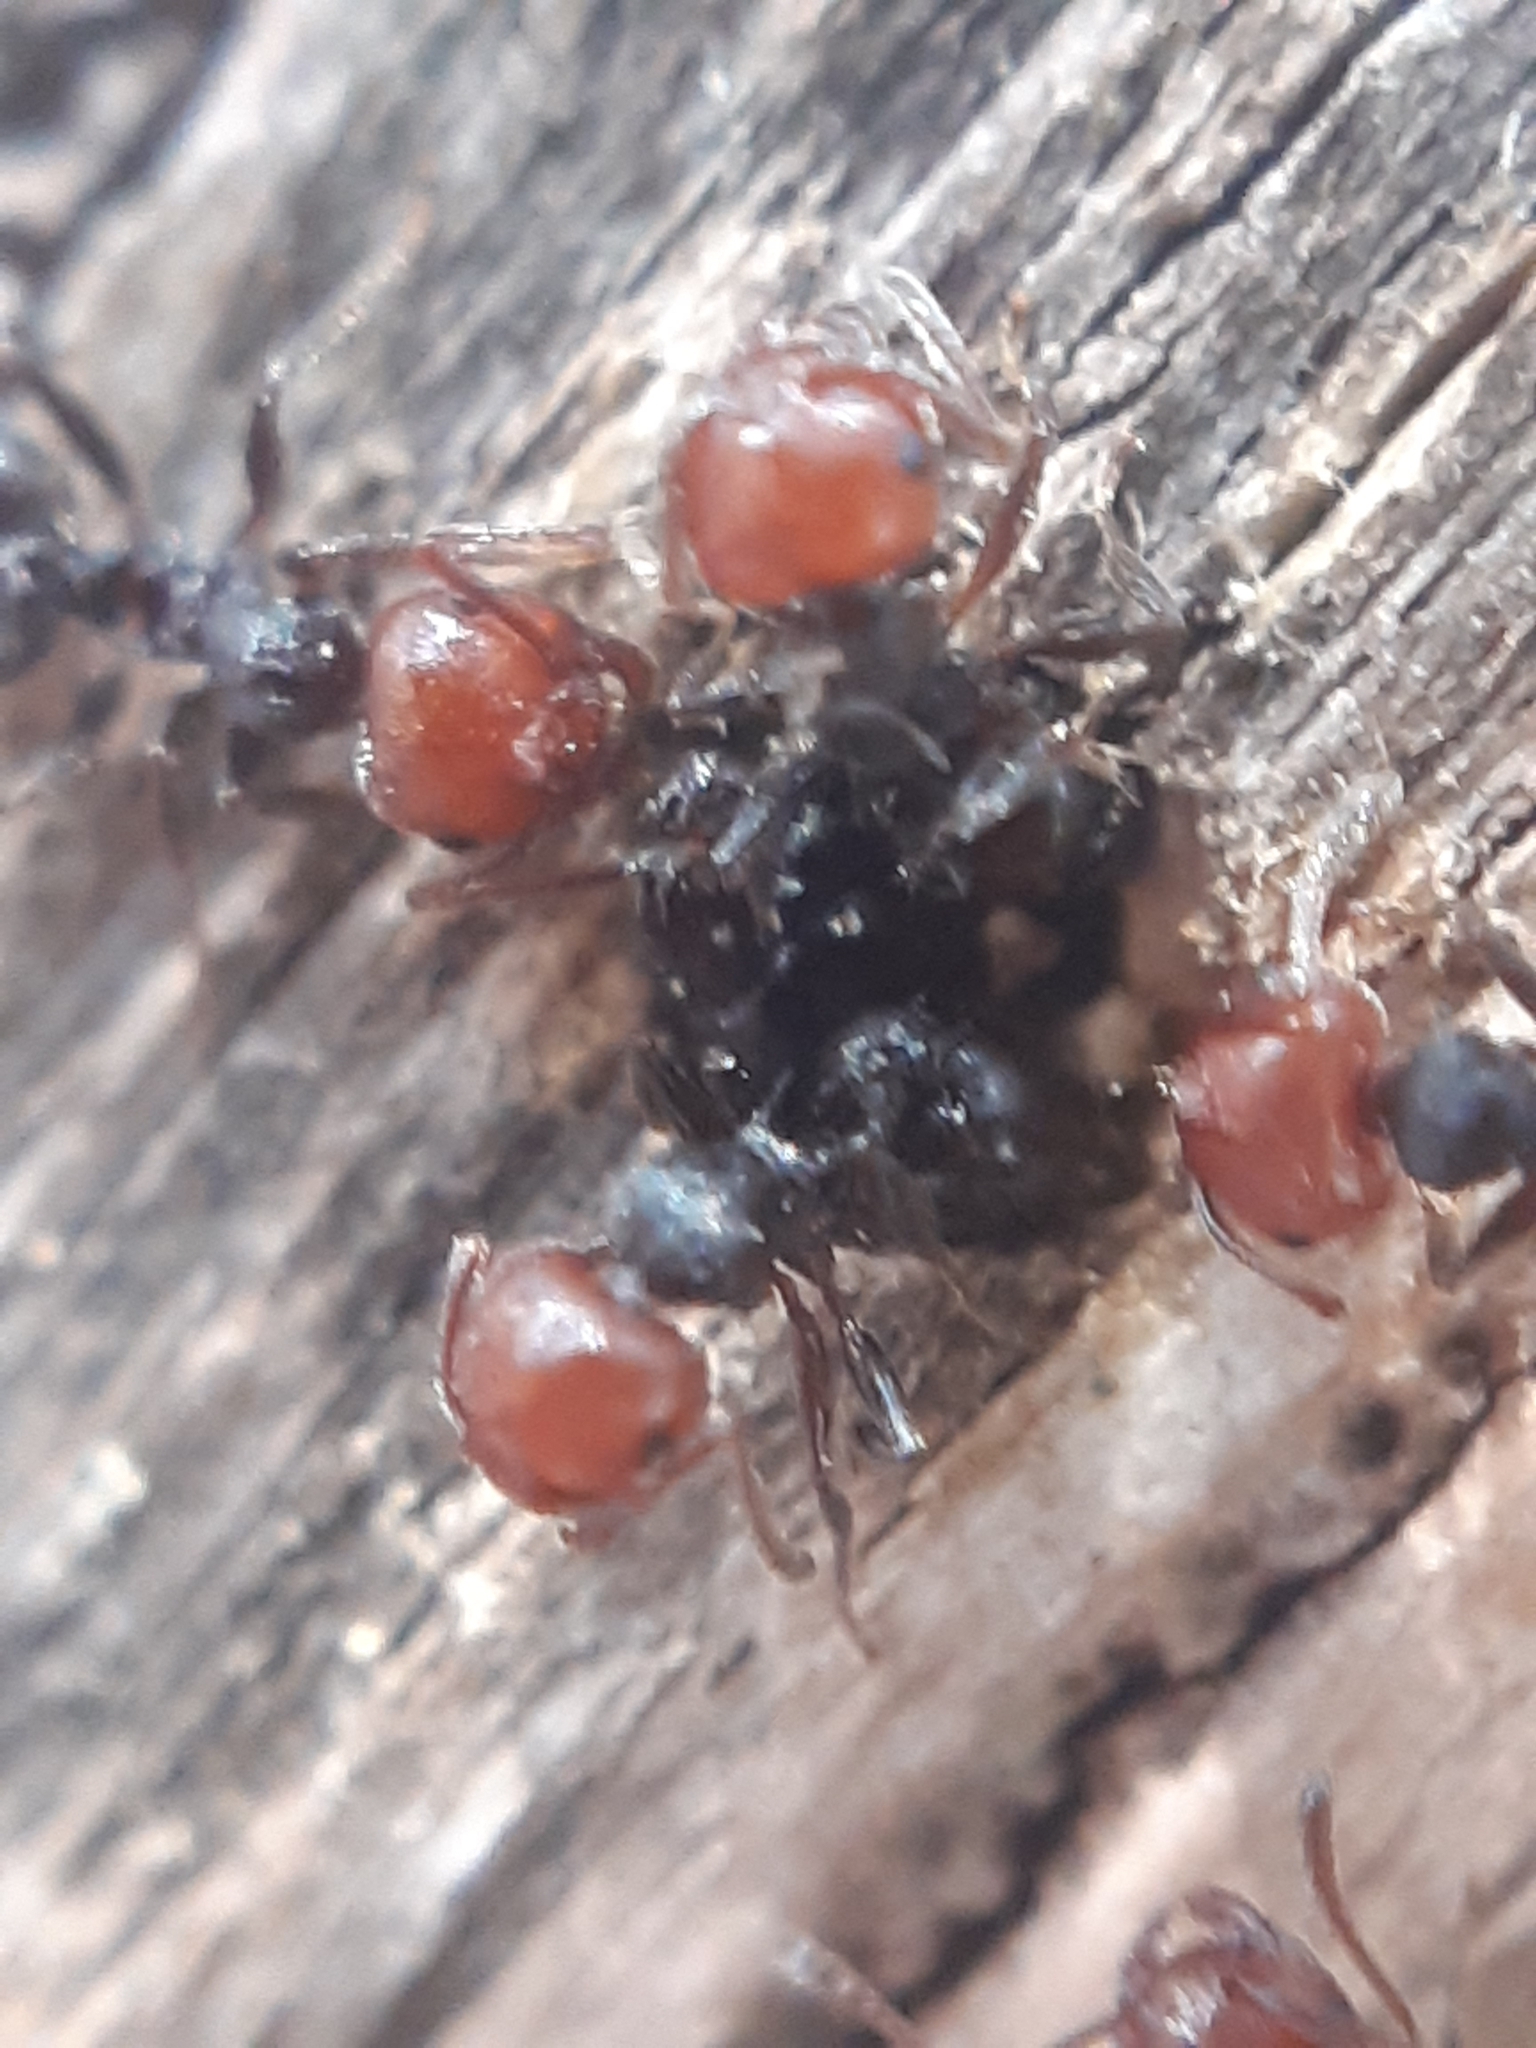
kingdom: Animalia
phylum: Arthropoda
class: Insecta
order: Hymenoptera
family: Formicidae
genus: Crematogaster
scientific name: Crematogaster scutellaris
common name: Fourmi du liège
